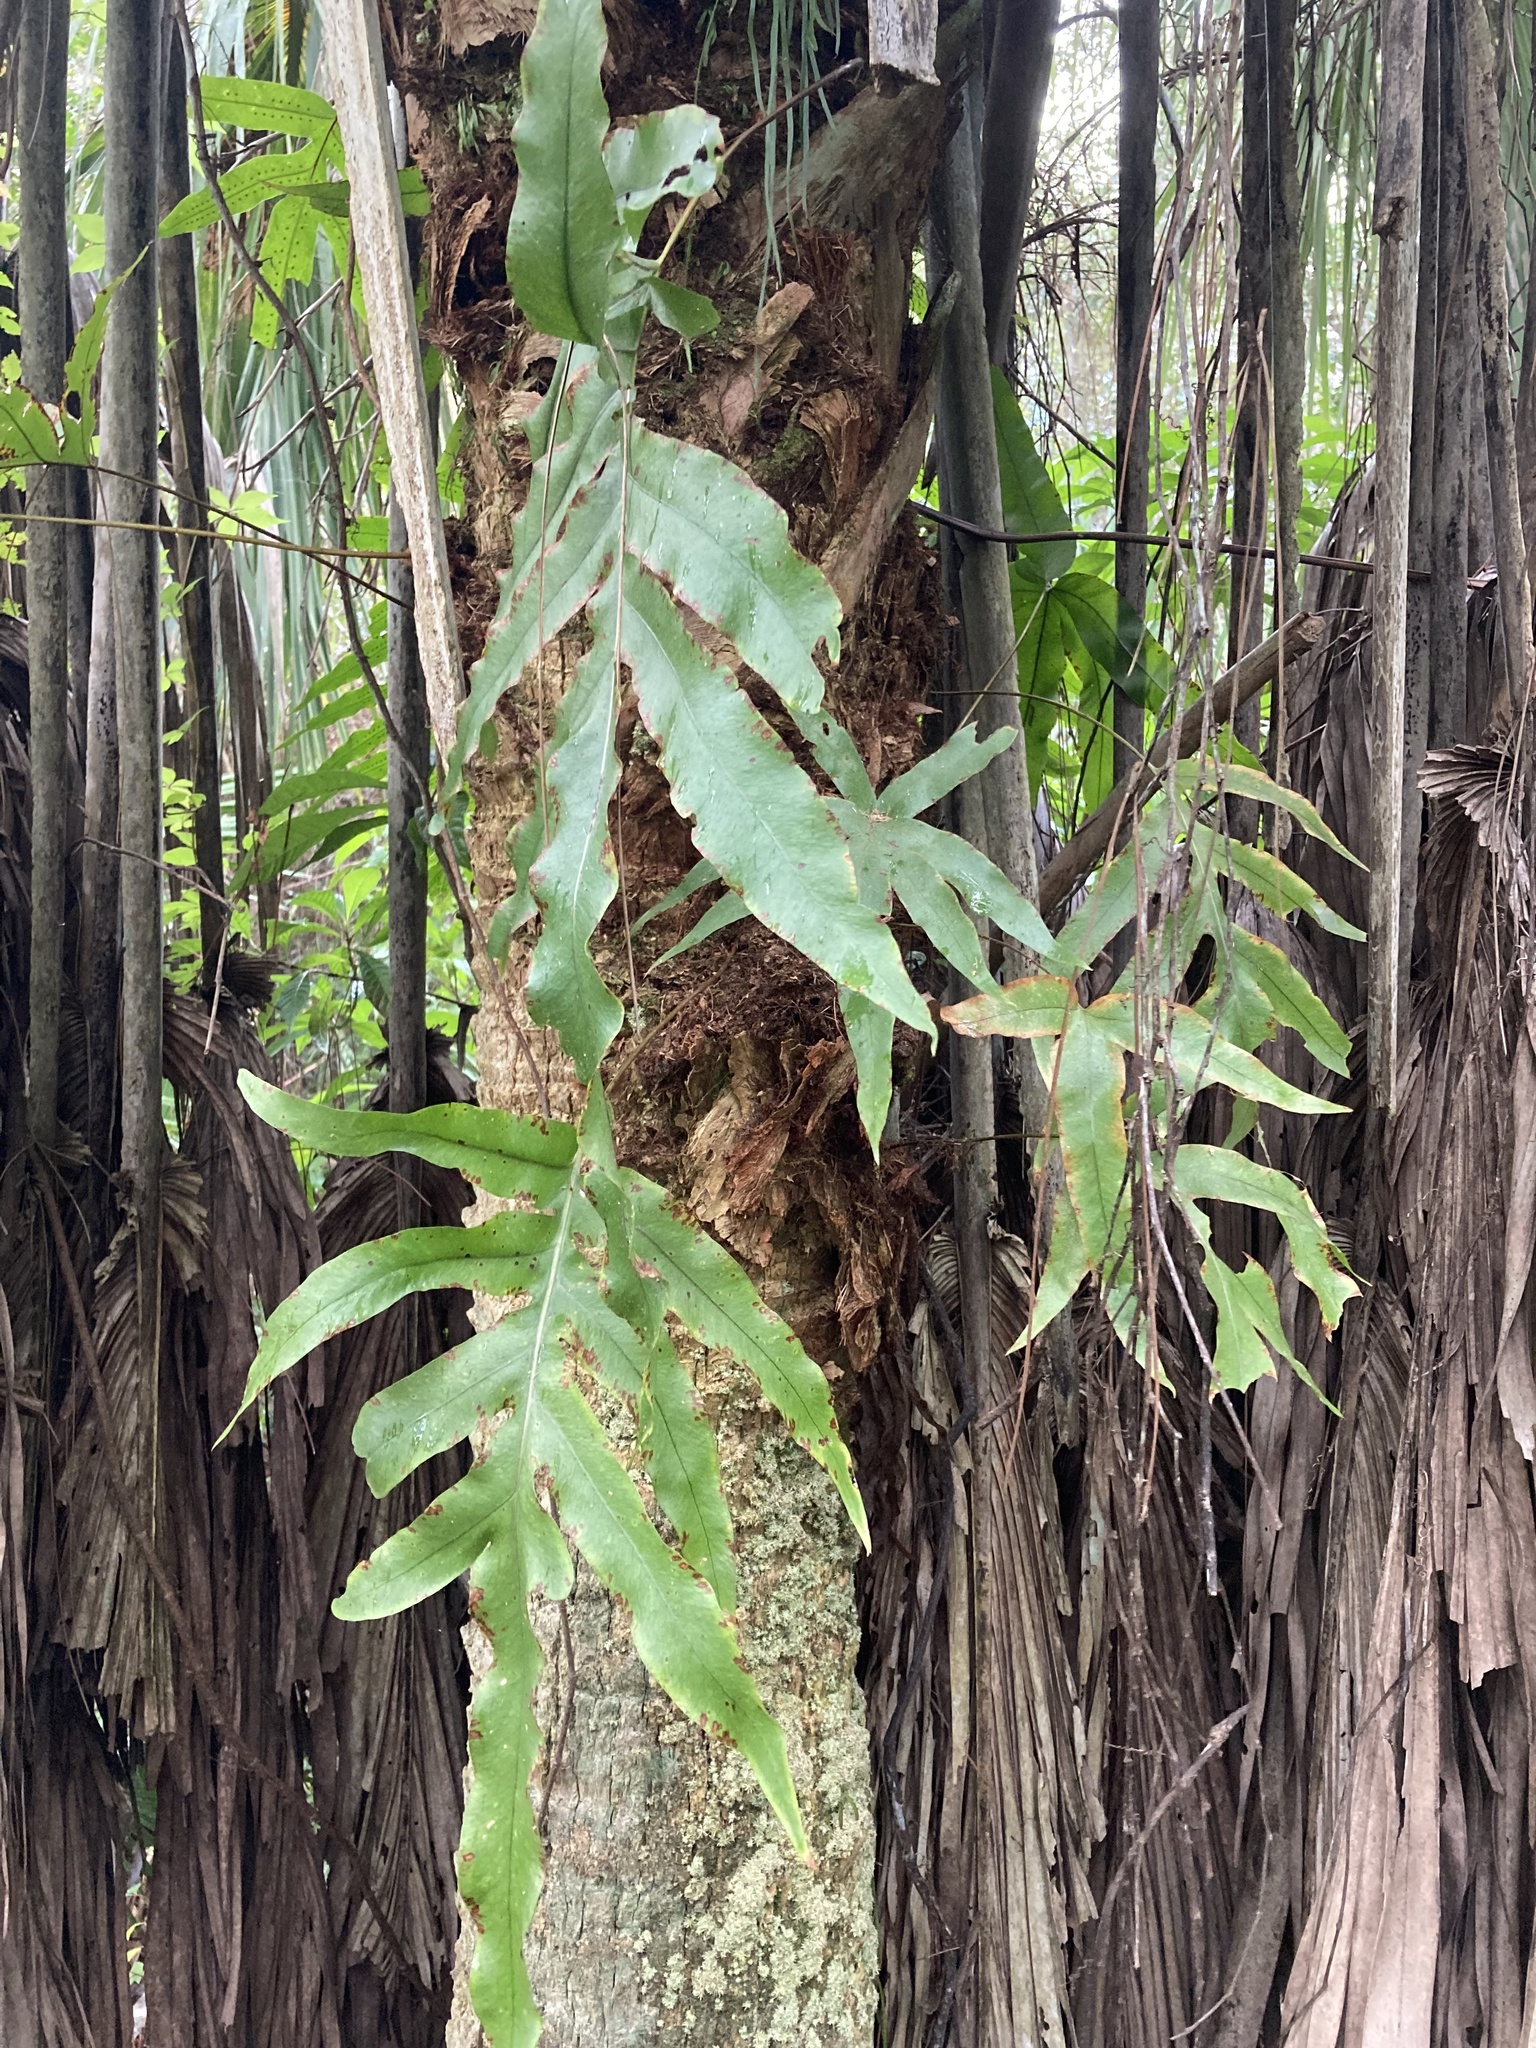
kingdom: Plantae
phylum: Tracheophyta
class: Polypodiopsida
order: Polypodiales
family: Polypodiaceae
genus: Phlebodium
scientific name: Phlebodium aureum
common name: Gold-foot fern
